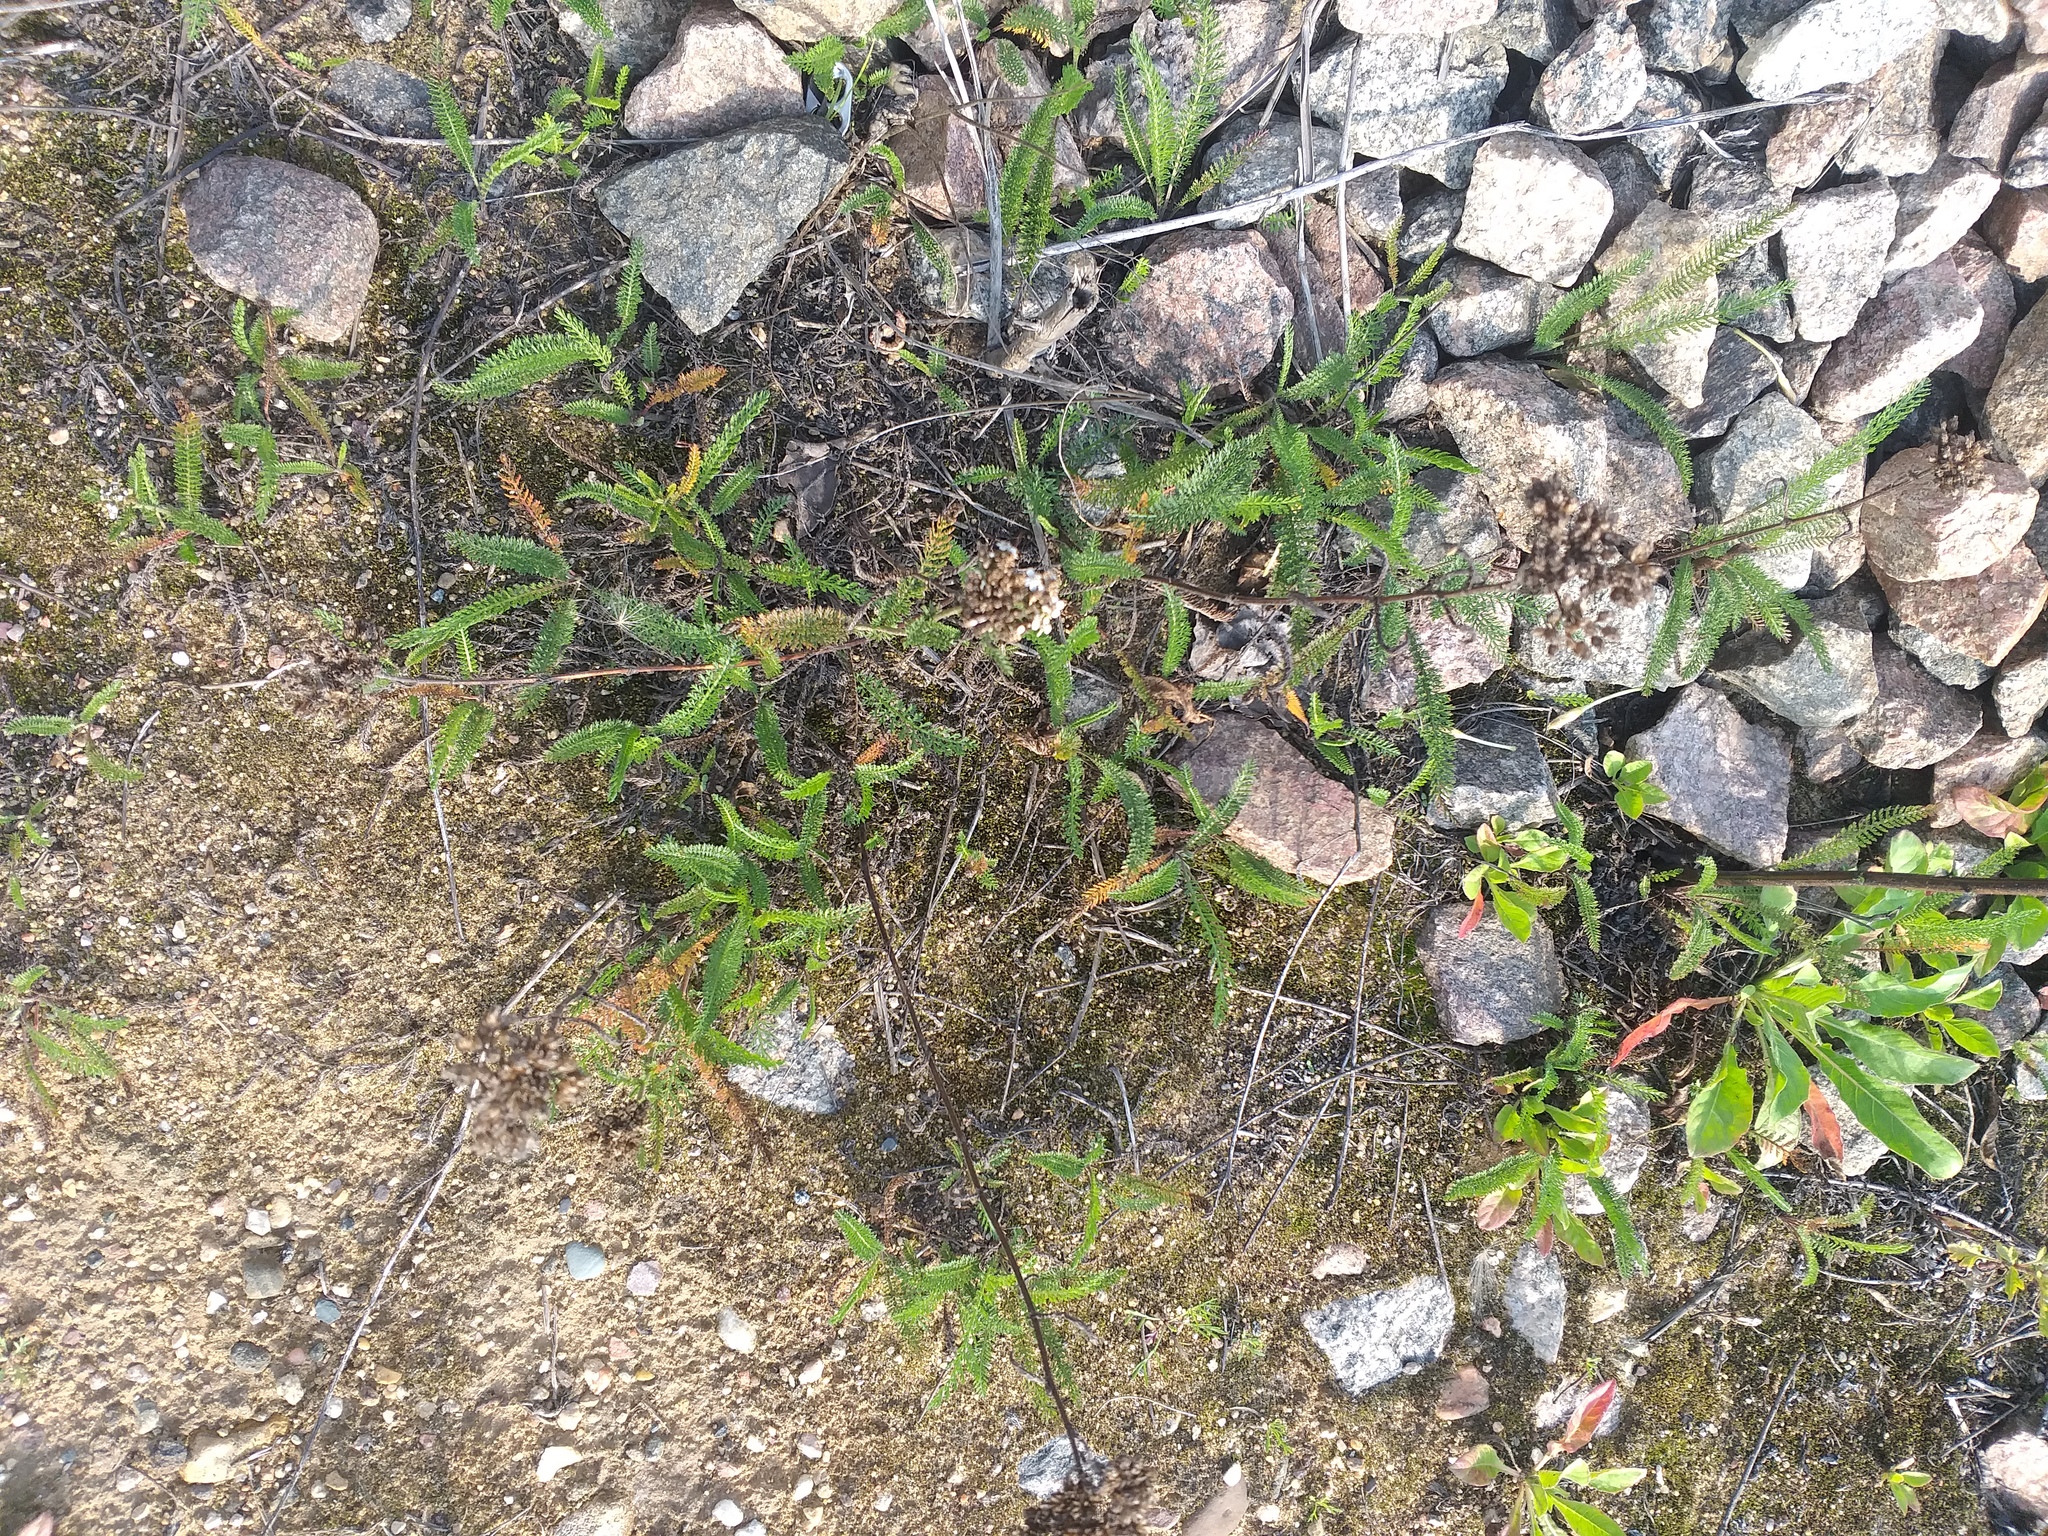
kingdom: Plantae
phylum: Tracheophyta
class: Magnoliopsida
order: Asterales
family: Asteraceae
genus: Achillea
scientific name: Achillea millefolium
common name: Yarrow
